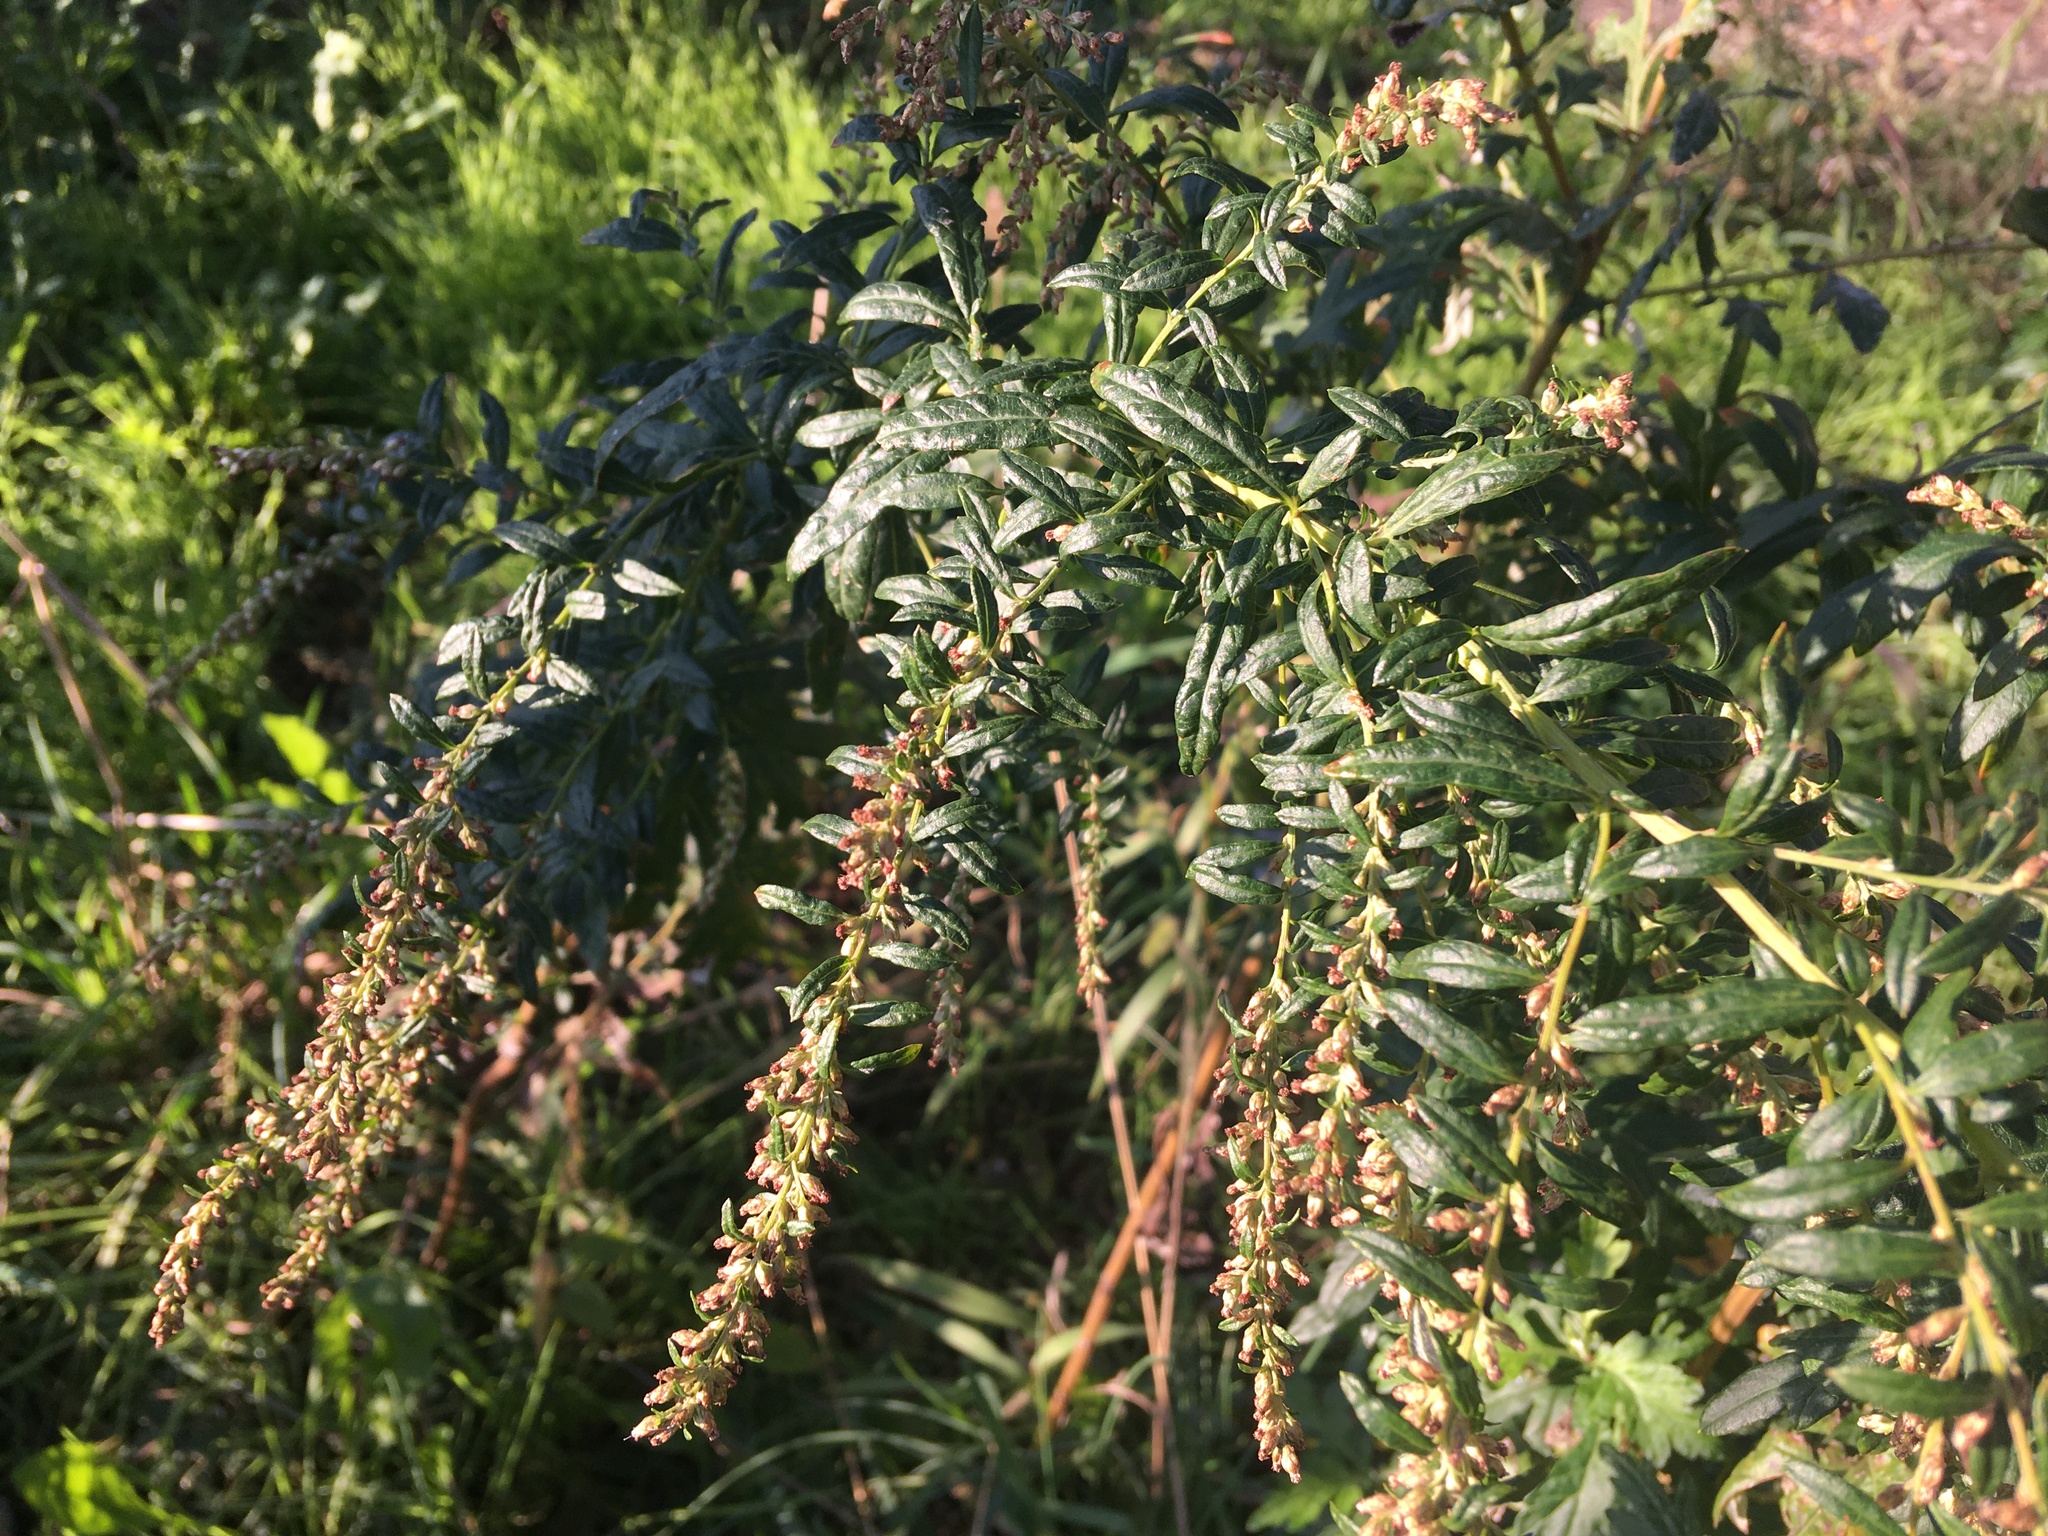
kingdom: Plantae
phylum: Tracheophyta
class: Magnoliopsida
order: Asterales
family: Asteraceae
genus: Artemisia
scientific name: Artemisia vulgaris
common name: Mugwort
